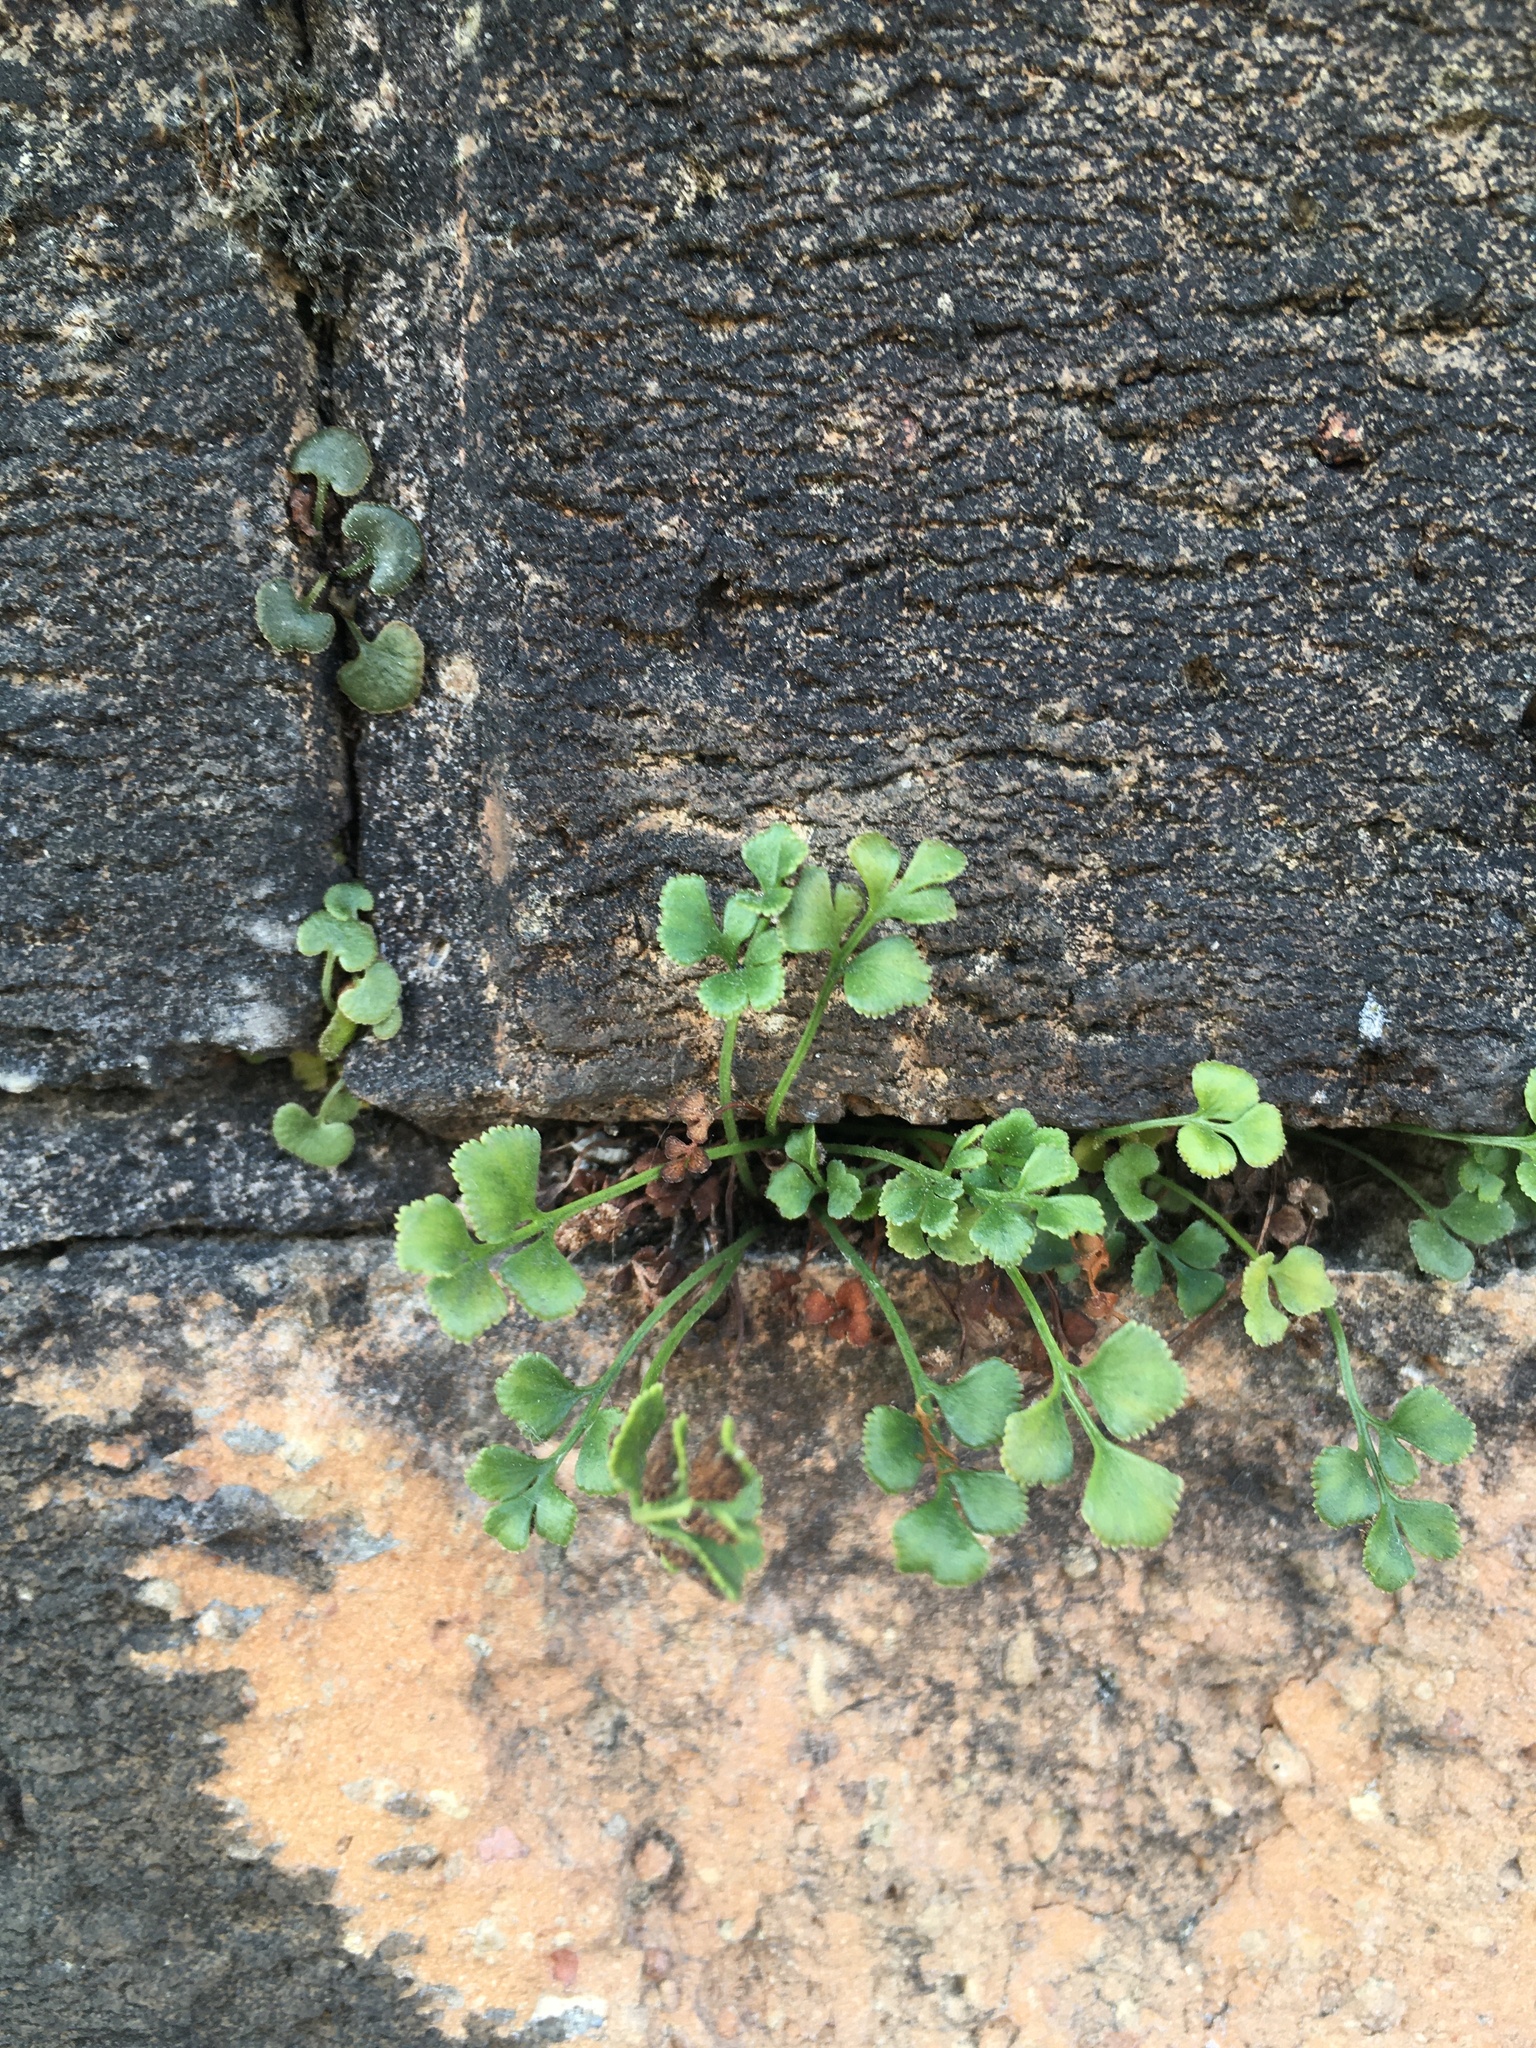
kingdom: Plantae
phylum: Tracheophyta
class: Polypodiopsida
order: Polypodiales
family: Aspleniaceae
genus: Asplenium
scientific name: Asplenium ruta-muraria
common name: Wall-rue
